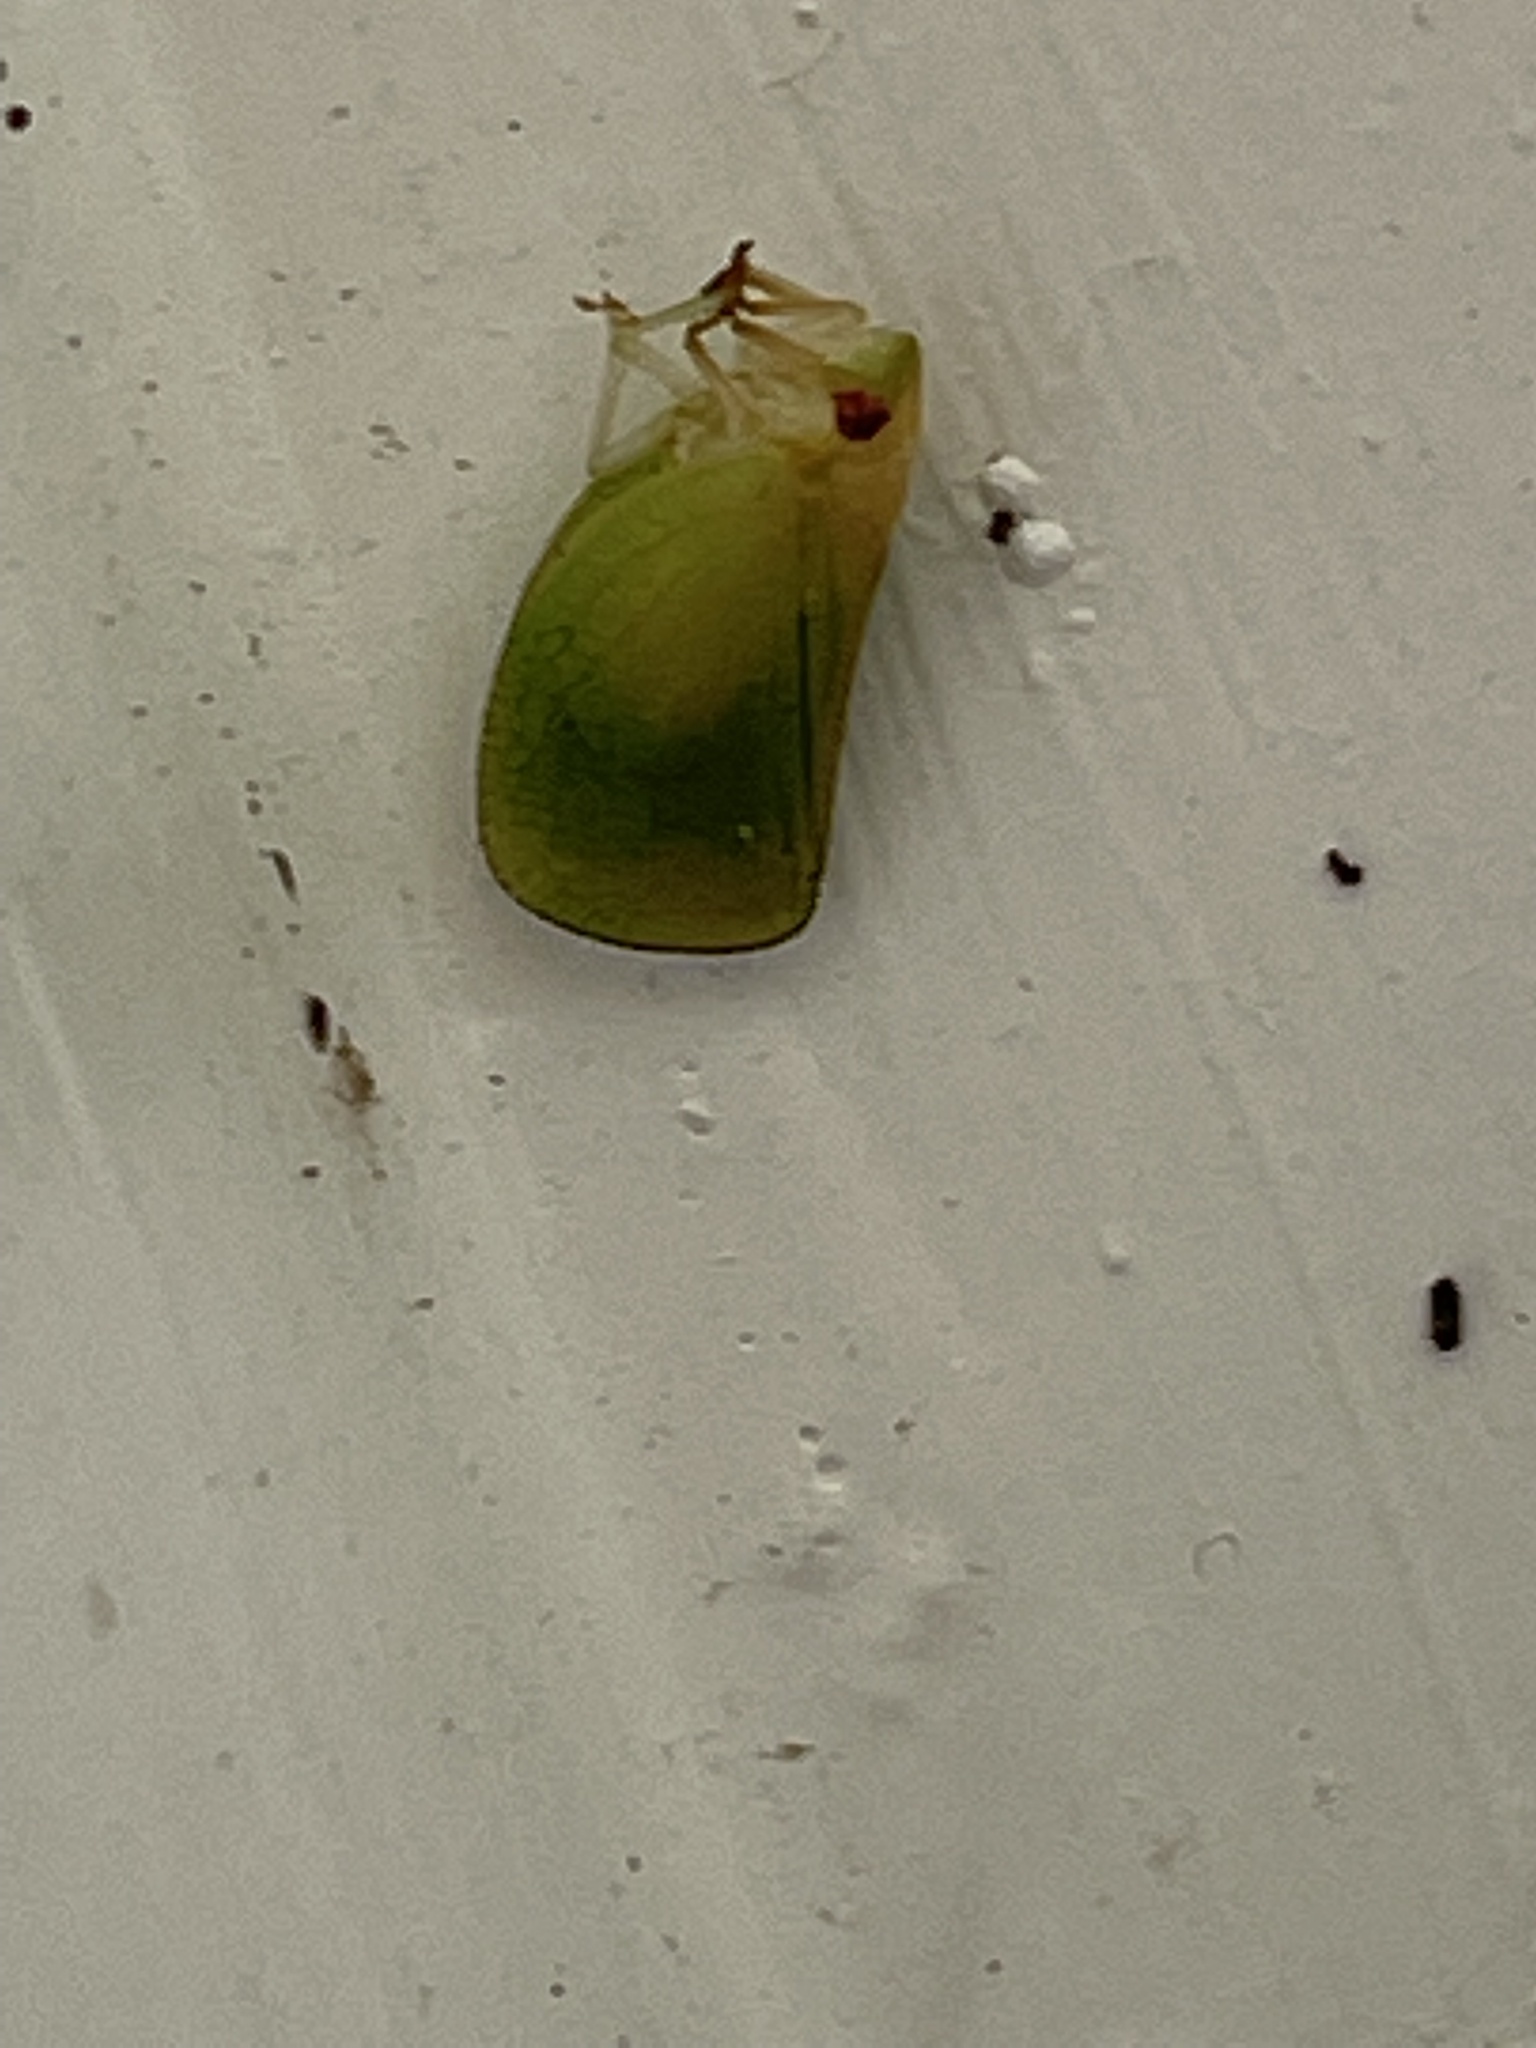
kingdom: Animalia
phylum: Arthropoda
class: Insecta
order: Hemiptera
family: Acanaloniidae
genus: Acanalonia
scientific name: Acanalonia conica
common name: Green cone-headed planthopper
